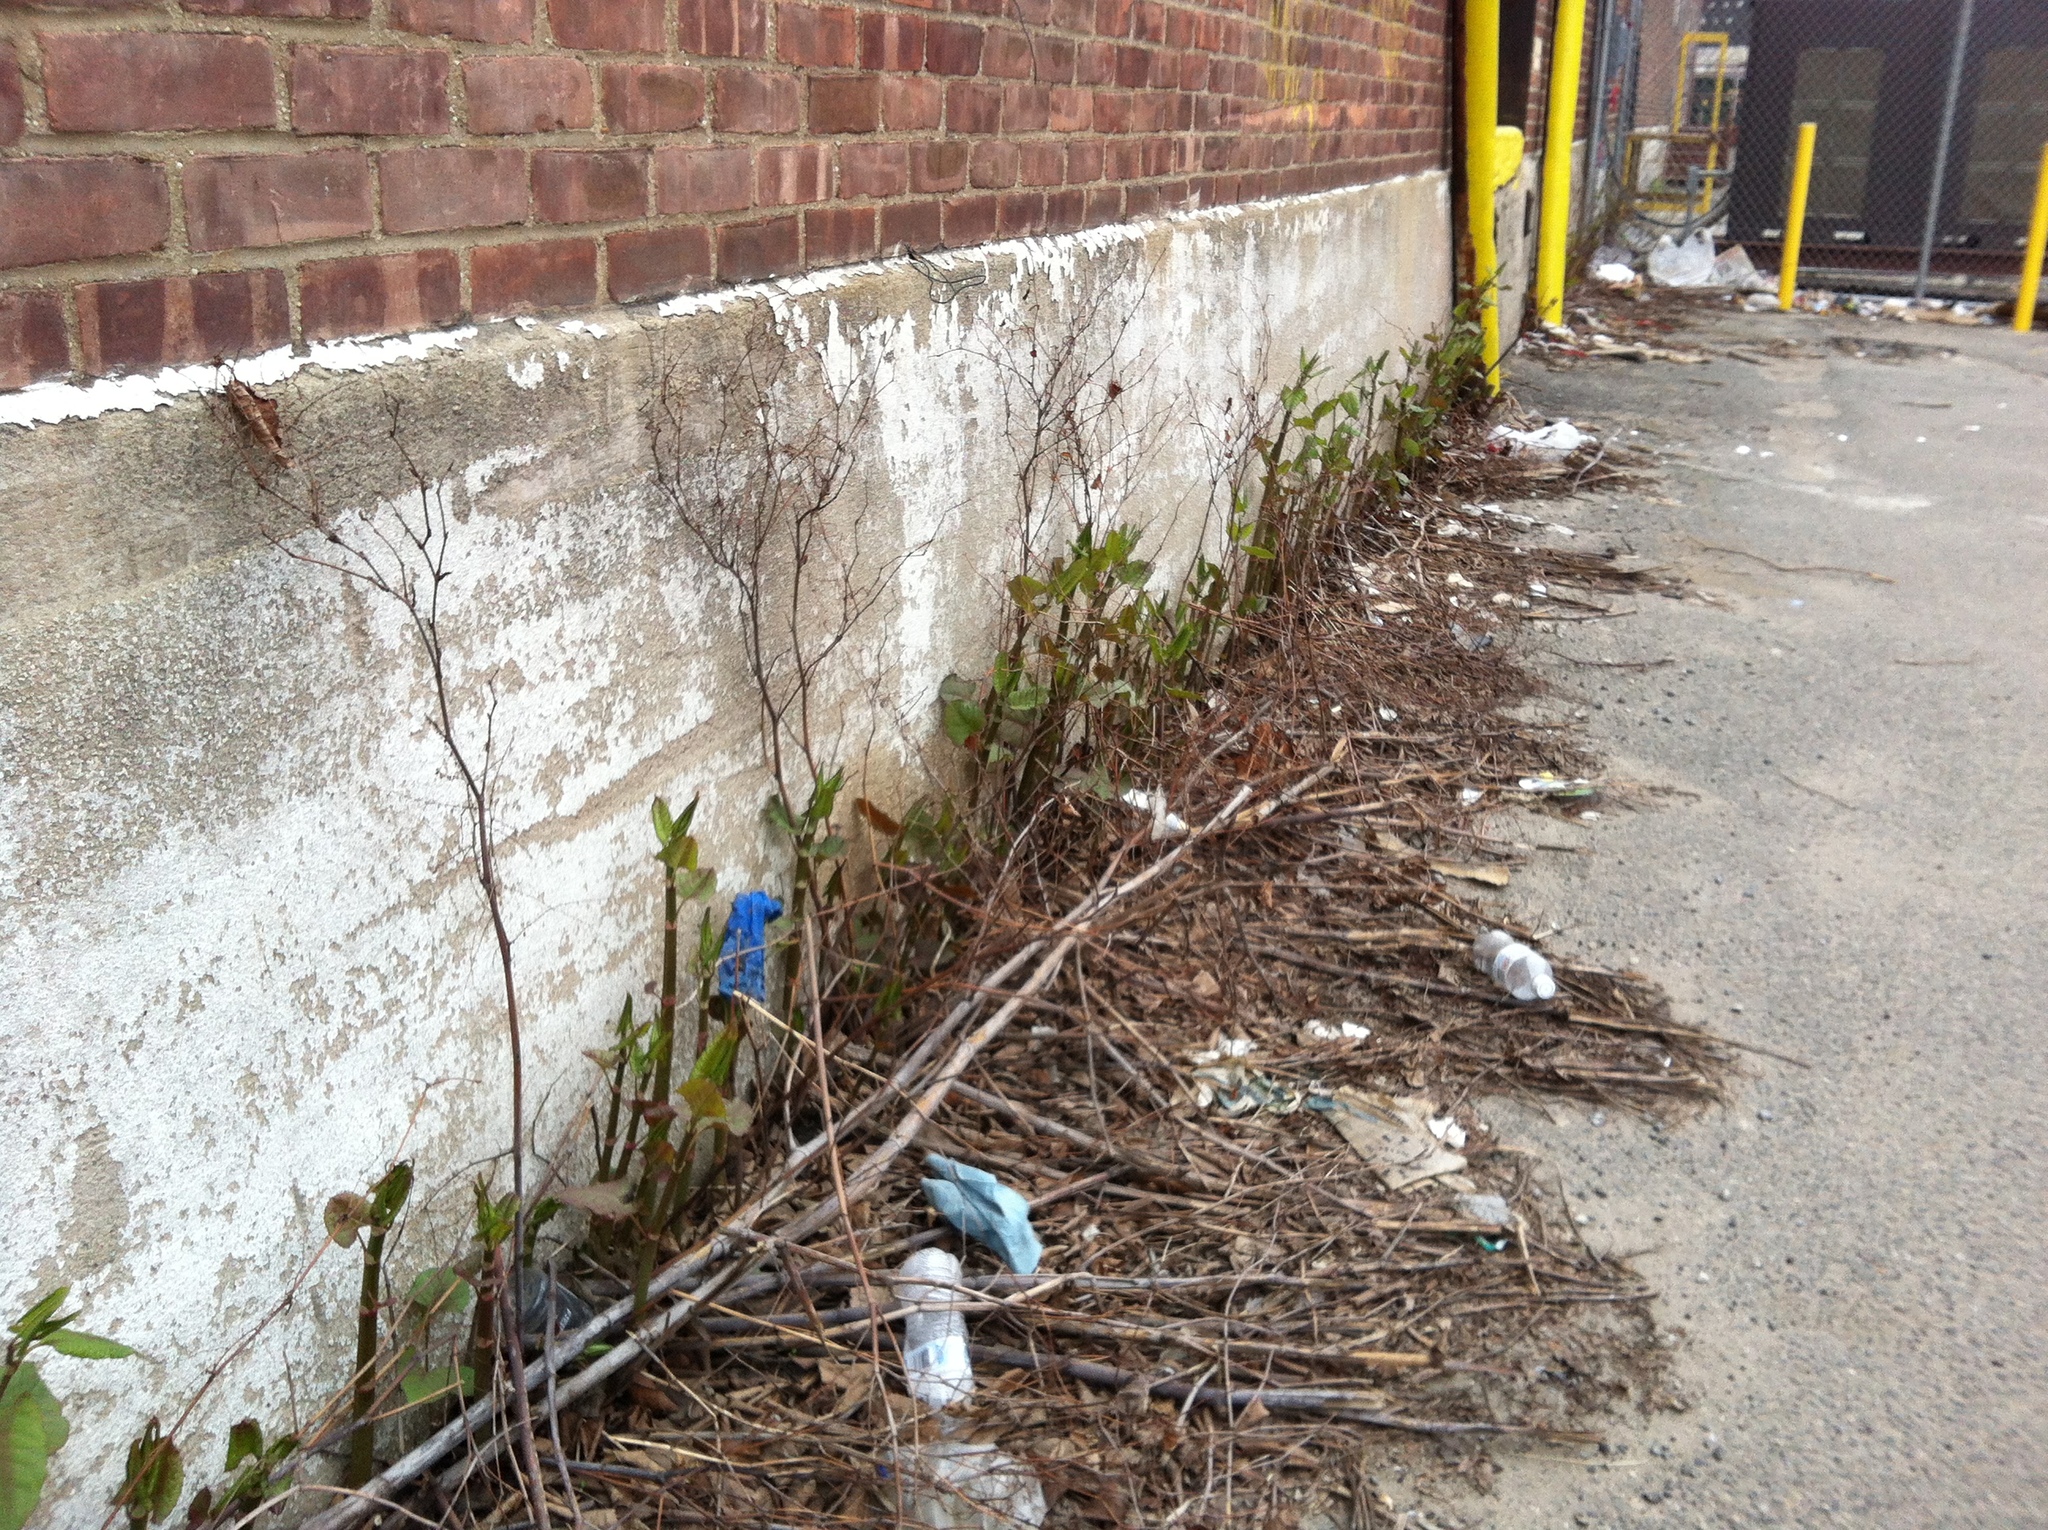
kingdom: Plantae
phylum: Tracheophyta
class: Magnoliopsida
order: Caryophyllales
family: Polygonaceae
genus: Reynoutria
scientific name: Reynoutria japonica
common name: Japanese knotweed
